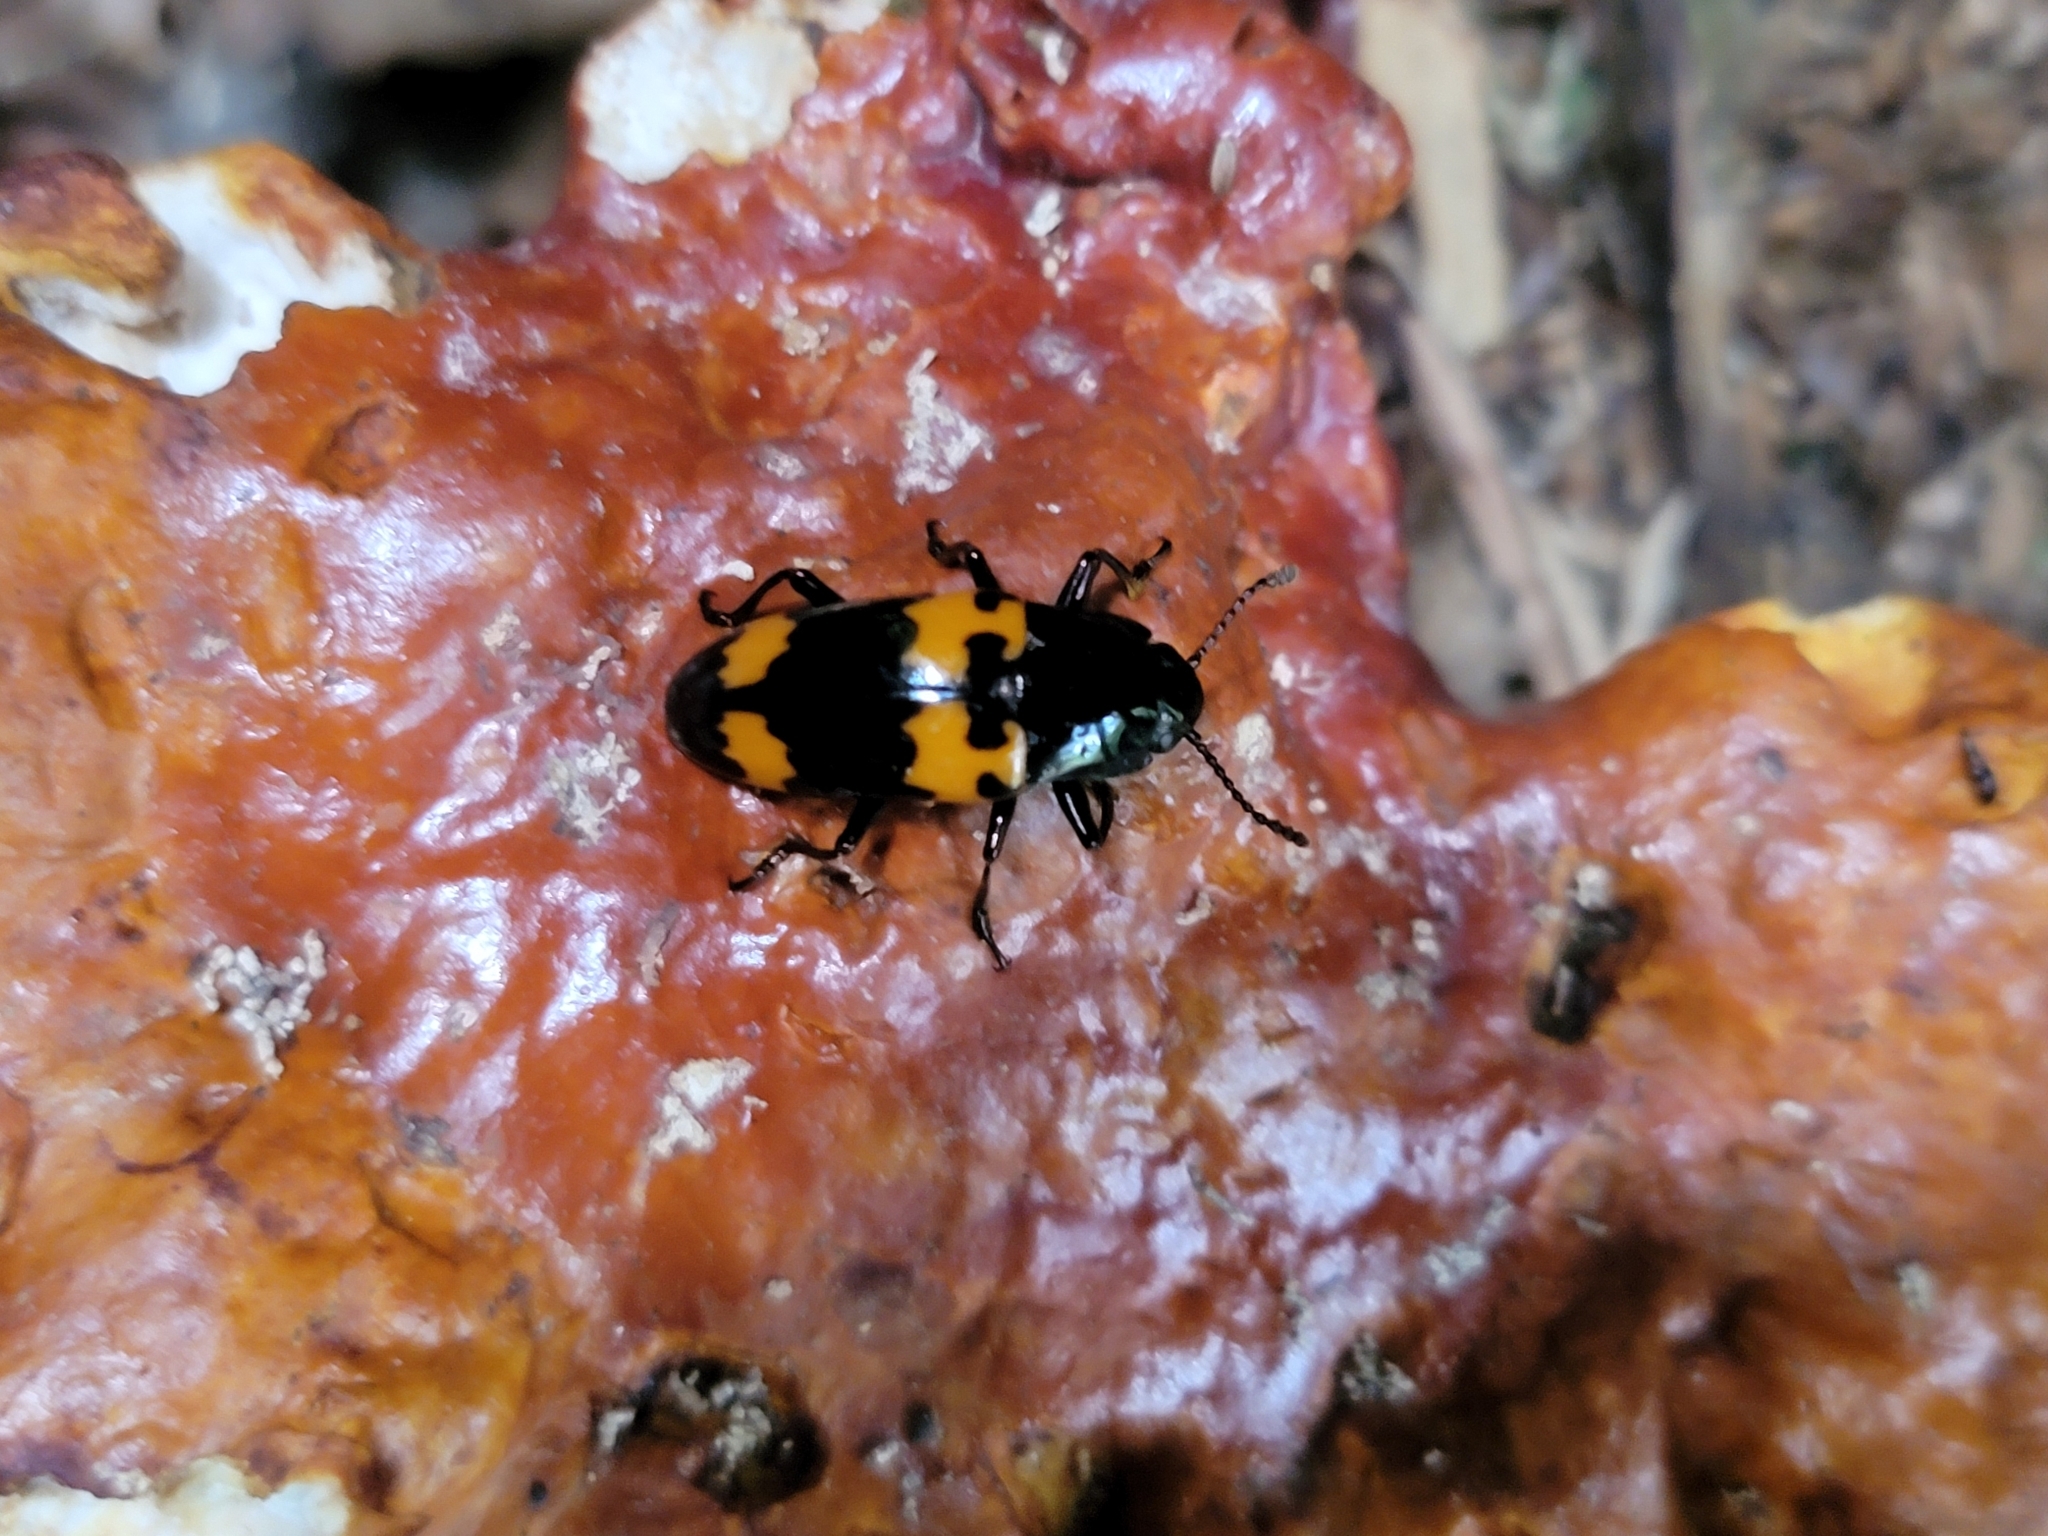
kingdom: Animalia
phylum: Arthropoda
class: Insecta
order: Coleoptera
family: Erotylidae
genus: Megalodacne
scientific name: Megalodacne heros
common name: Pleasing fungus beetle
